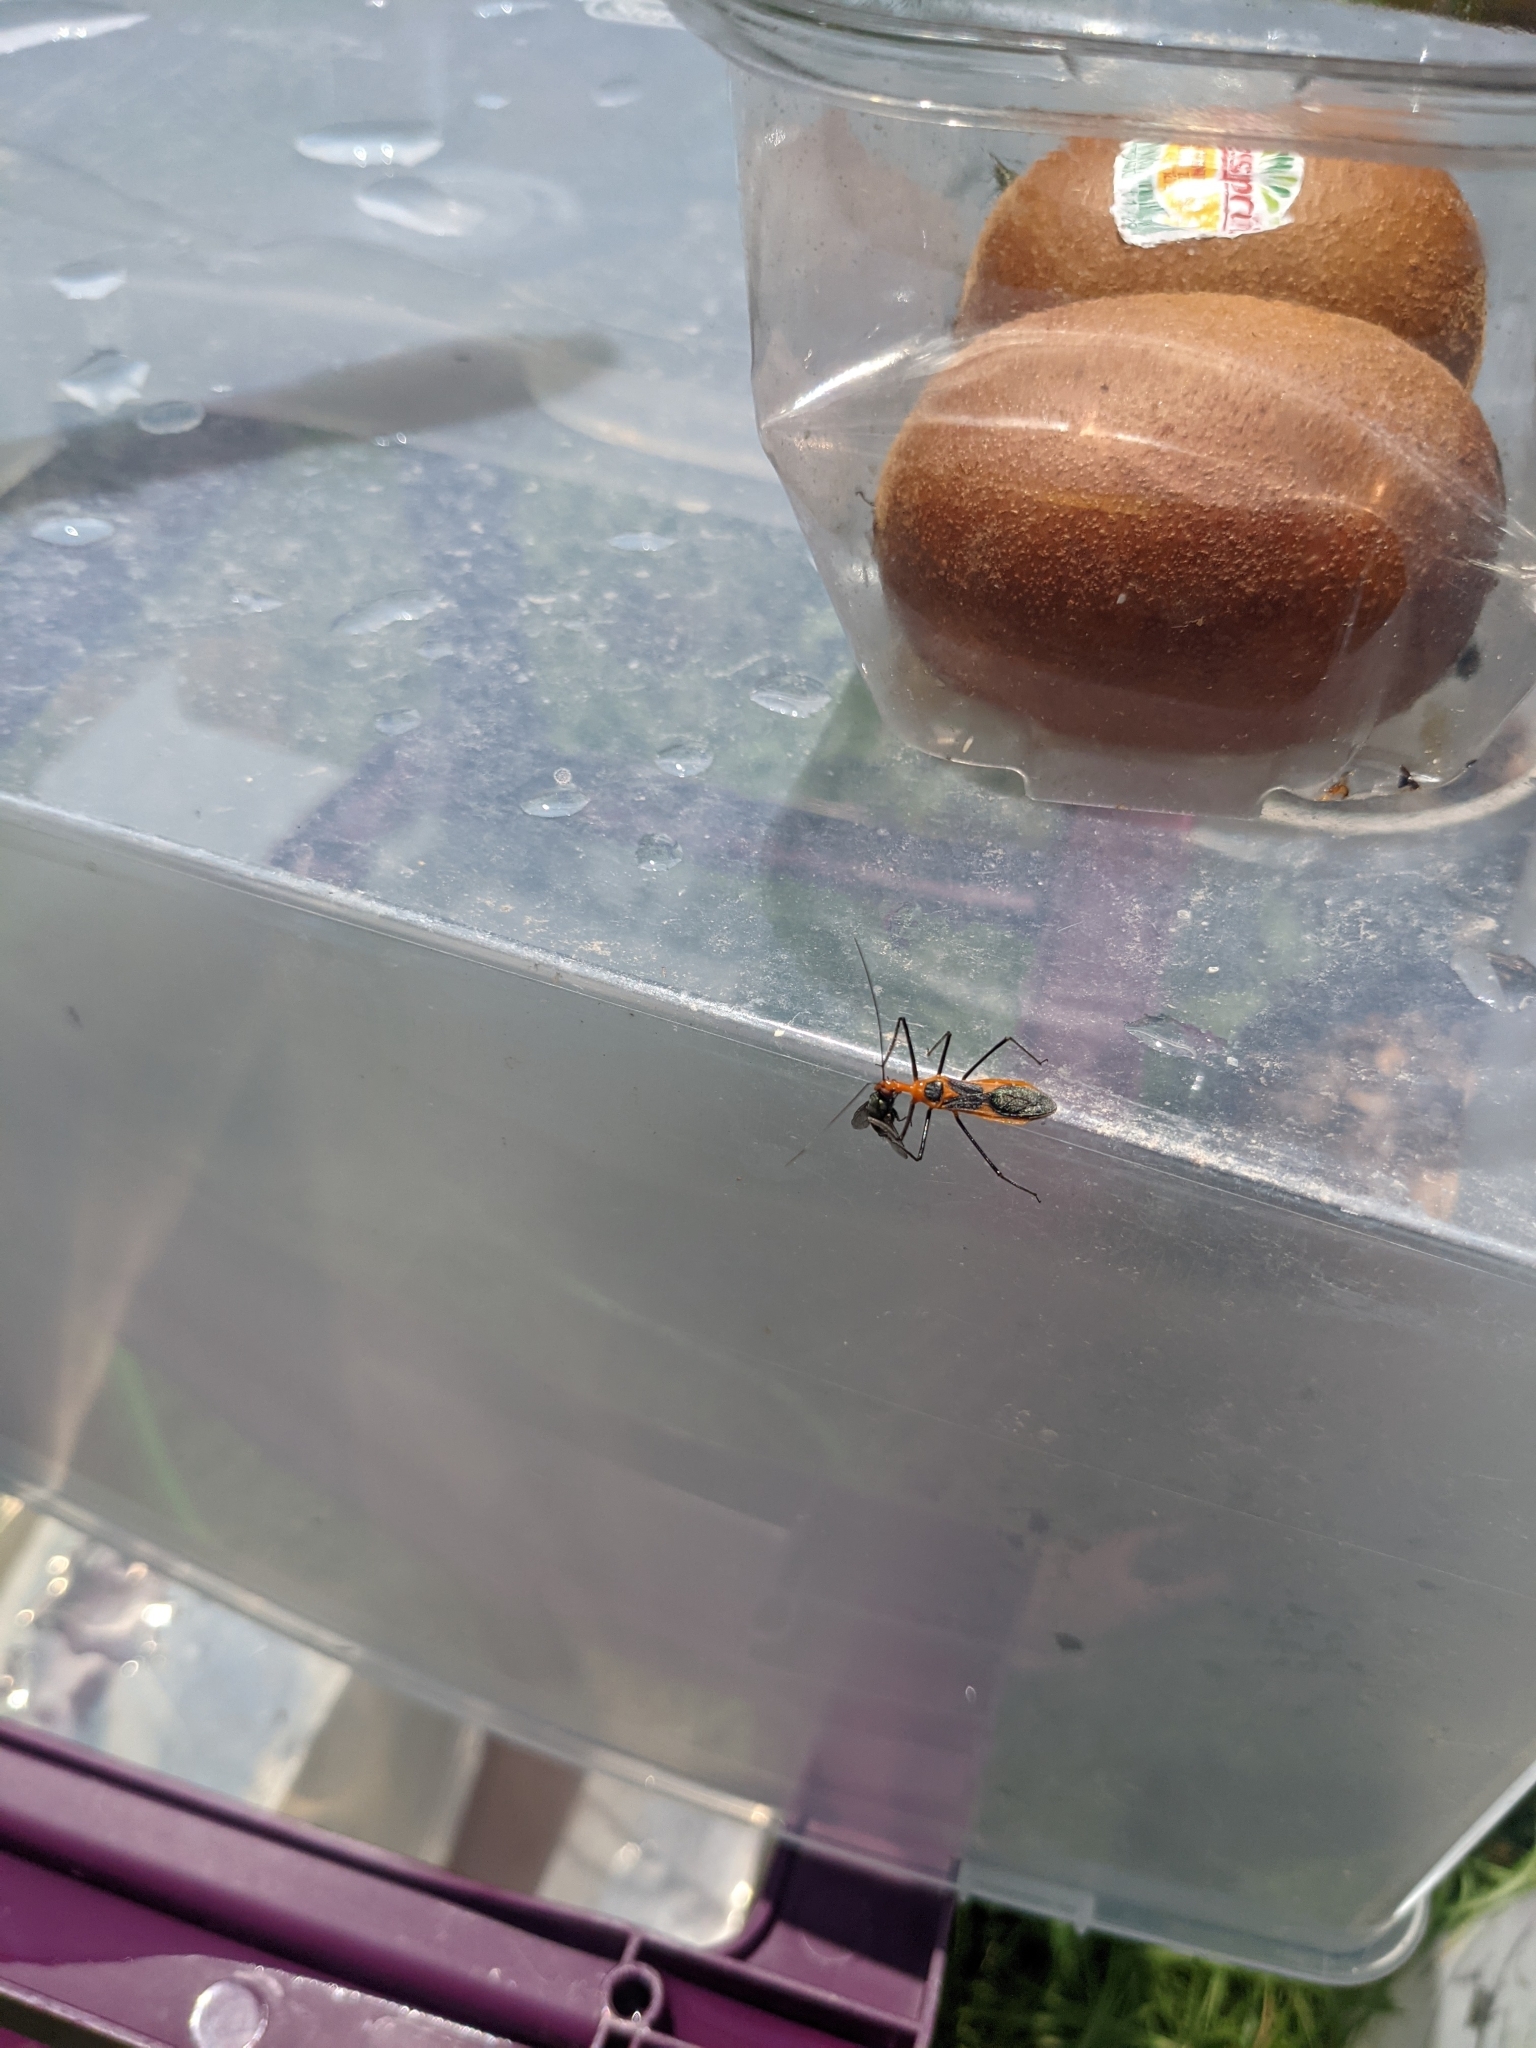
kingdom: Animalia
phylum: Arthropoda
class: Insecta
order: Hemiptera
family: Reduviidae
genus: Zelus
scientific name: Zelus longipes
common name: Milkweed assassin bug
